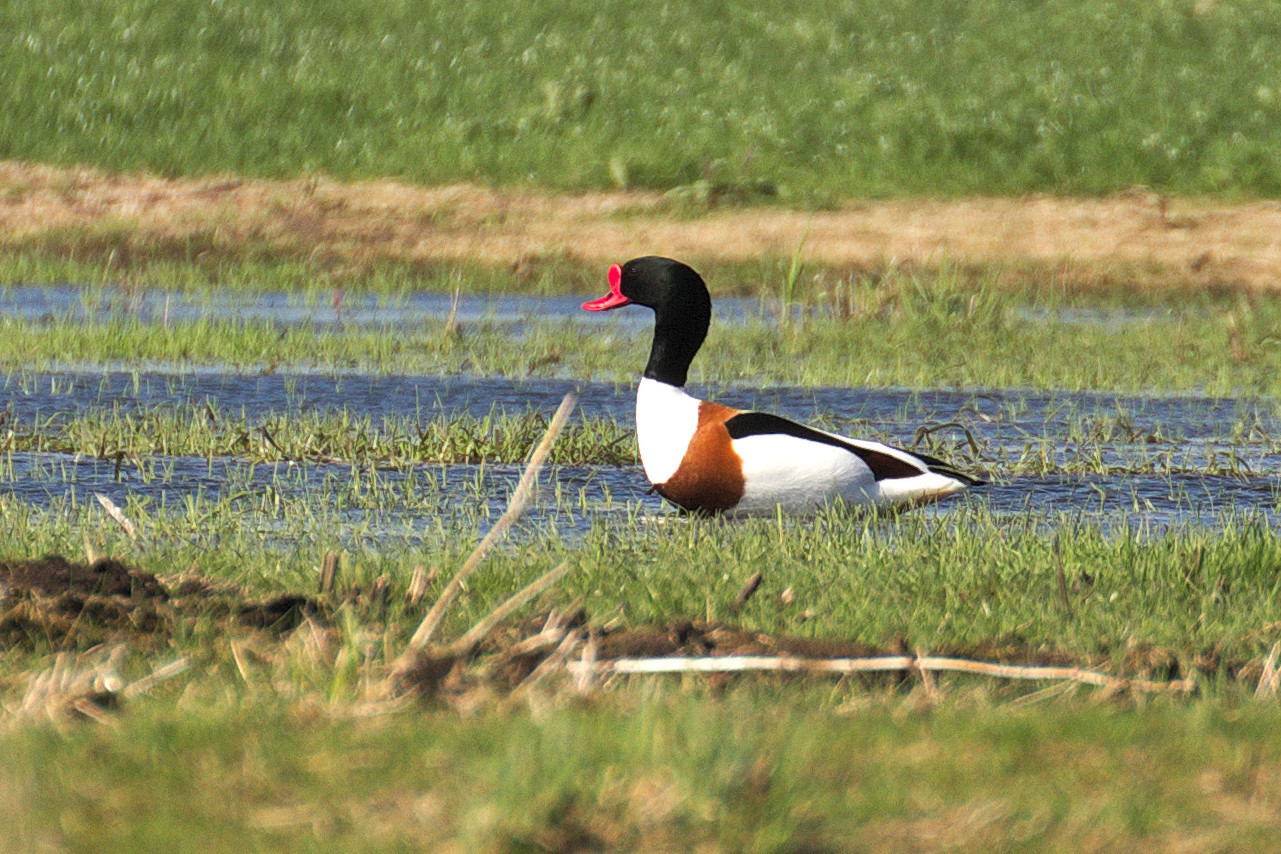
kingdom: Animalia
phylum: Chordata
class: Aves
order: Anseriformes
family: Anatidae
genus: Tadorna
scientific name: Tadorna tadorna
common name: Common shelduck
